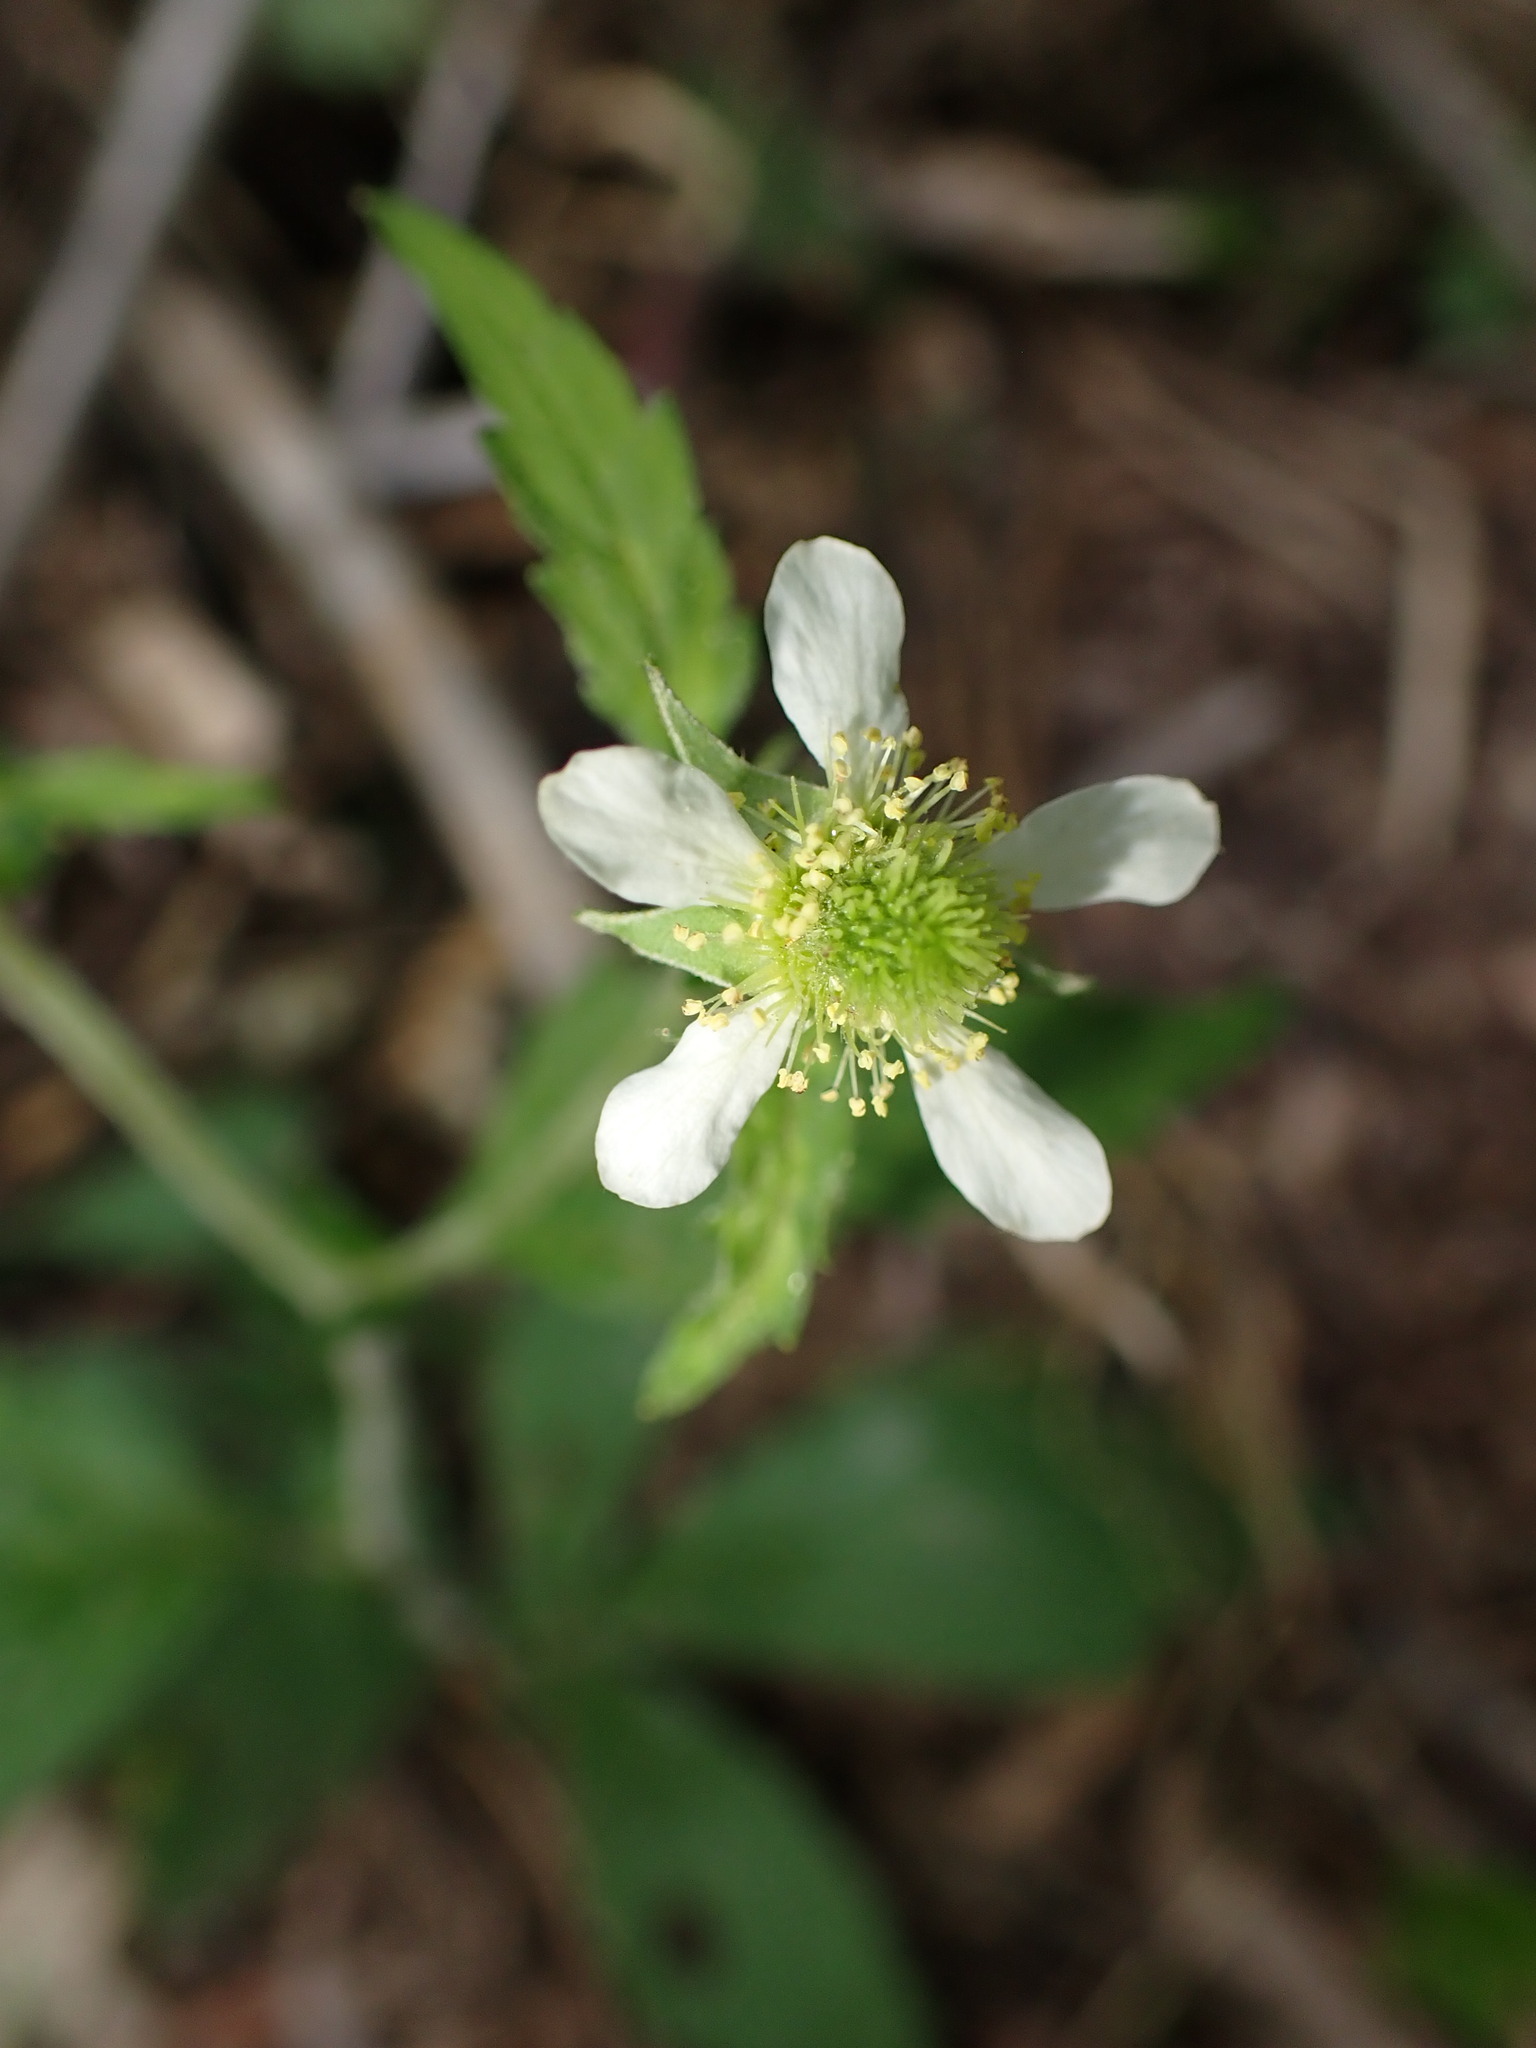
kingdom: Plantae
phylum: Tracheophyta
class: Magnoliopsida
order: Rosales
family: Rosaceae
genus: Geum
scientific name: Geum canadense
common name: White avens
